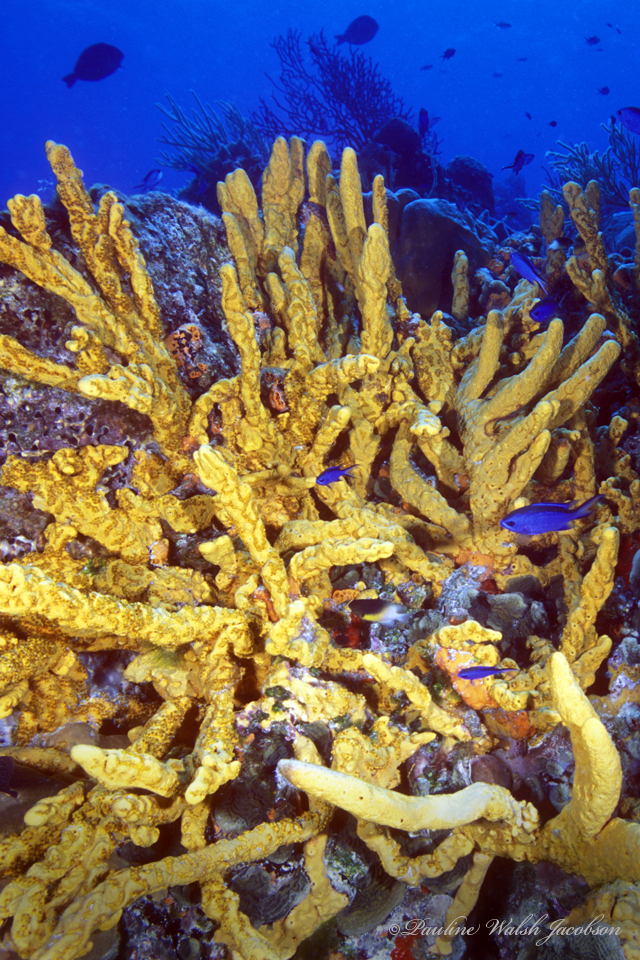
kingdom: Animalia
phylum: Porifera
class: Demospongiae
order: Agelasida
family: Agelasidae
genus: Agelas
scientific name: Agelas sceptrum
